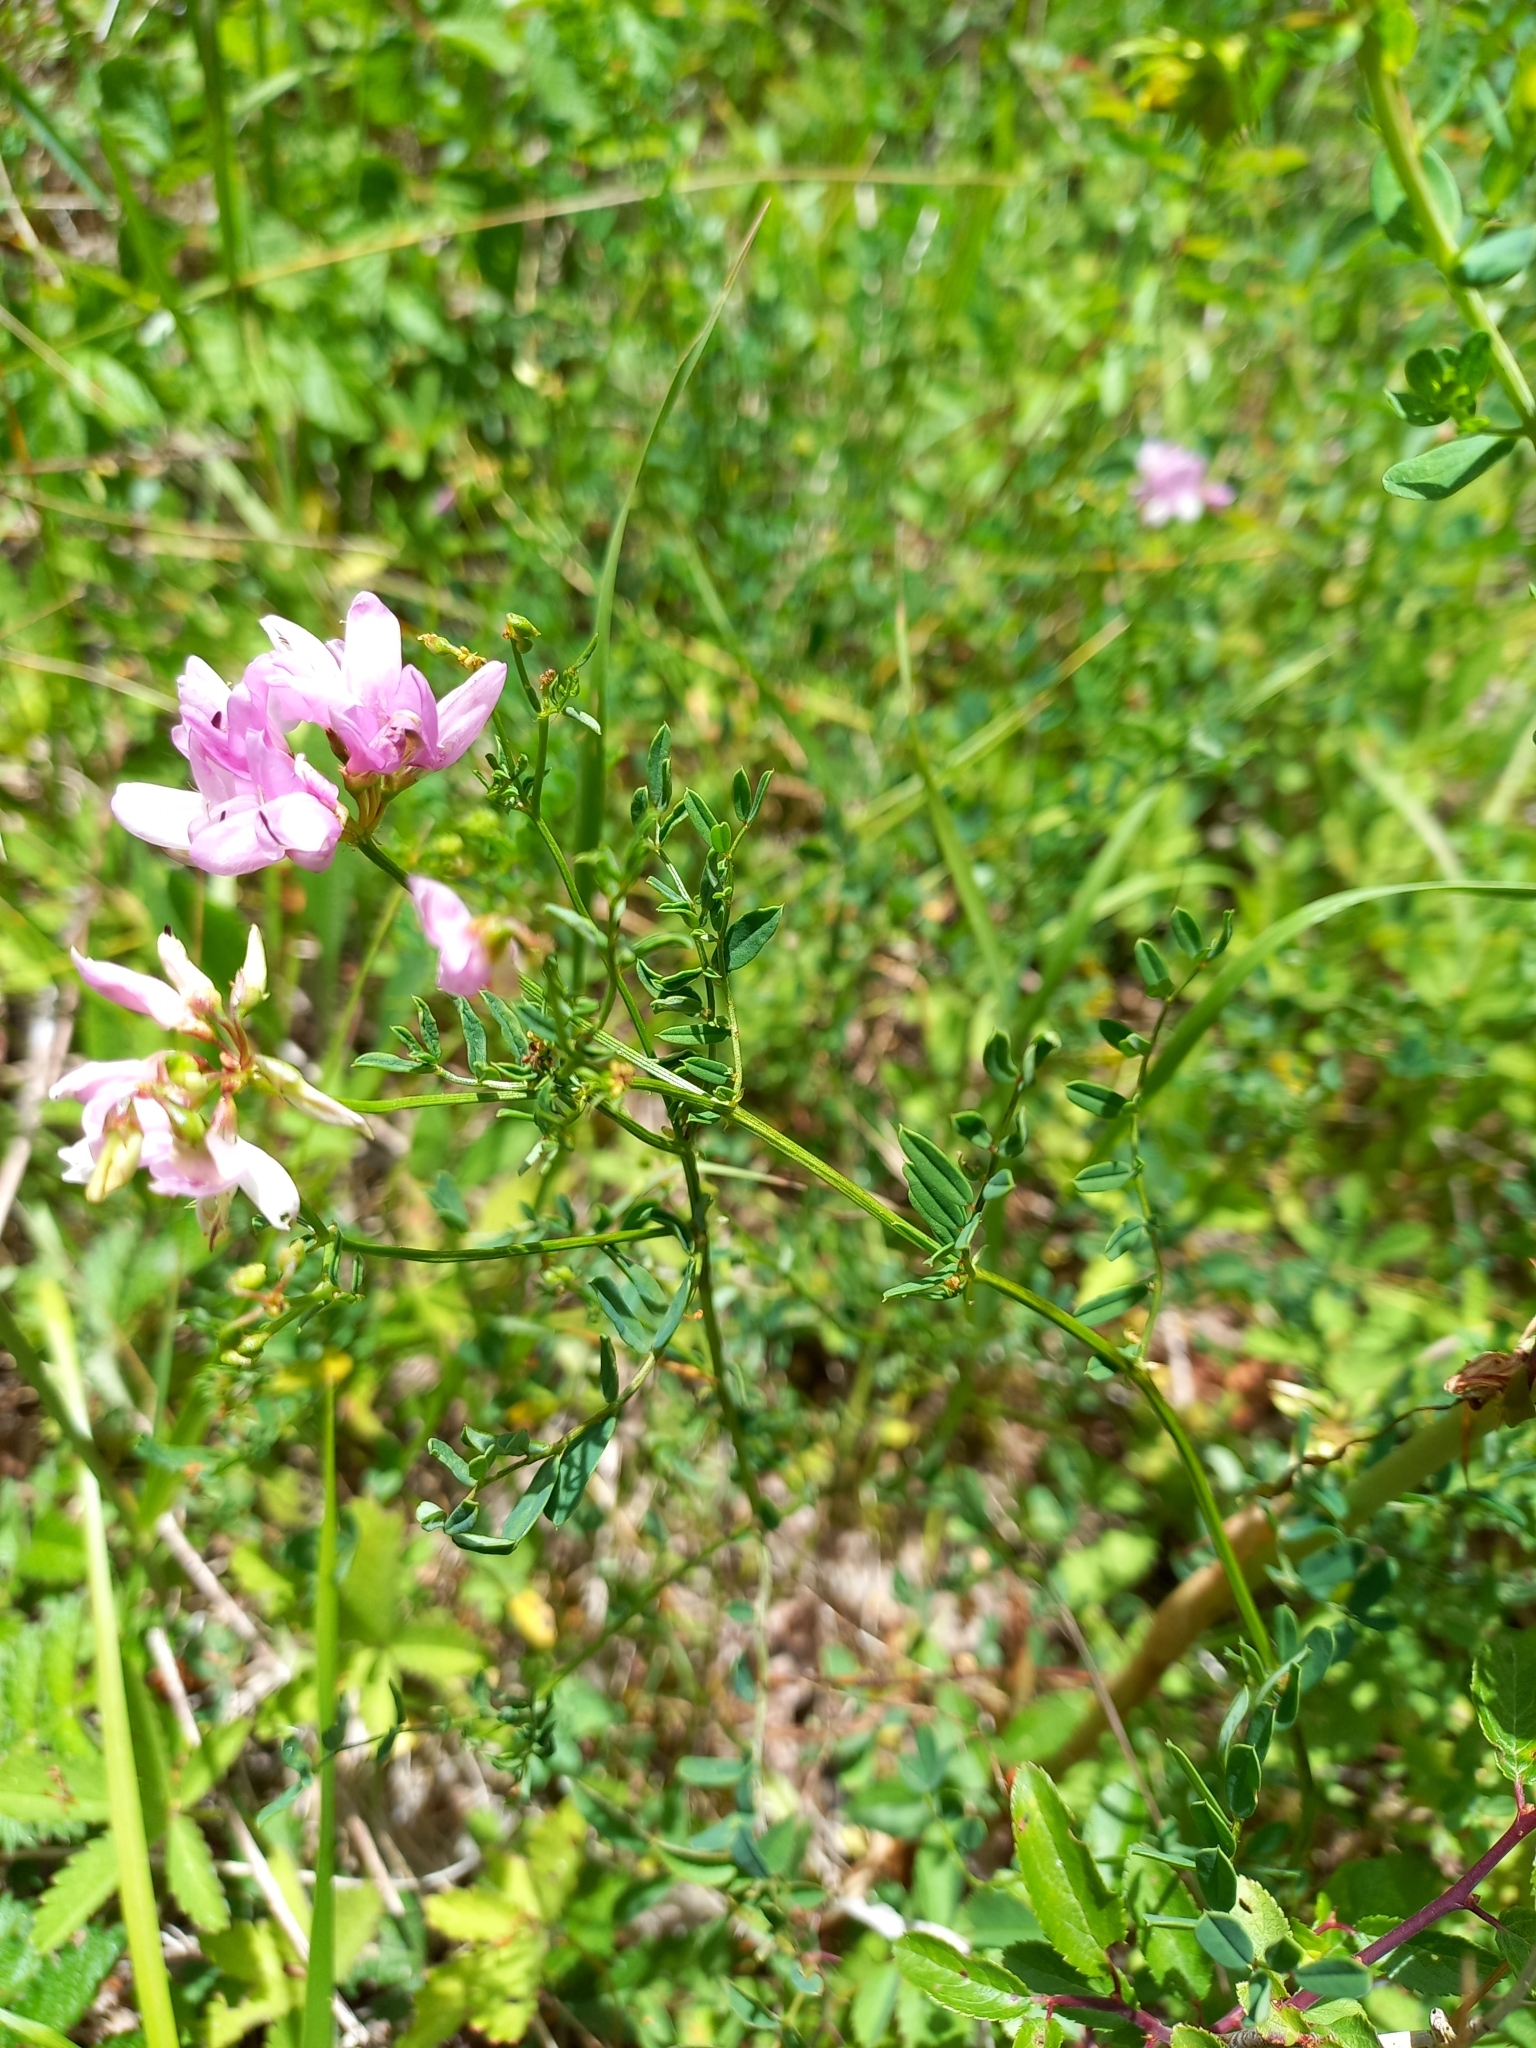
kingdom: Plantae
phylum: Tracheophyta
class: Magnoliopsida
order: Fabales
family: Fabaceae
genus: Coronilla
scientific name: Coronilla varia
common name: Crownvetch
